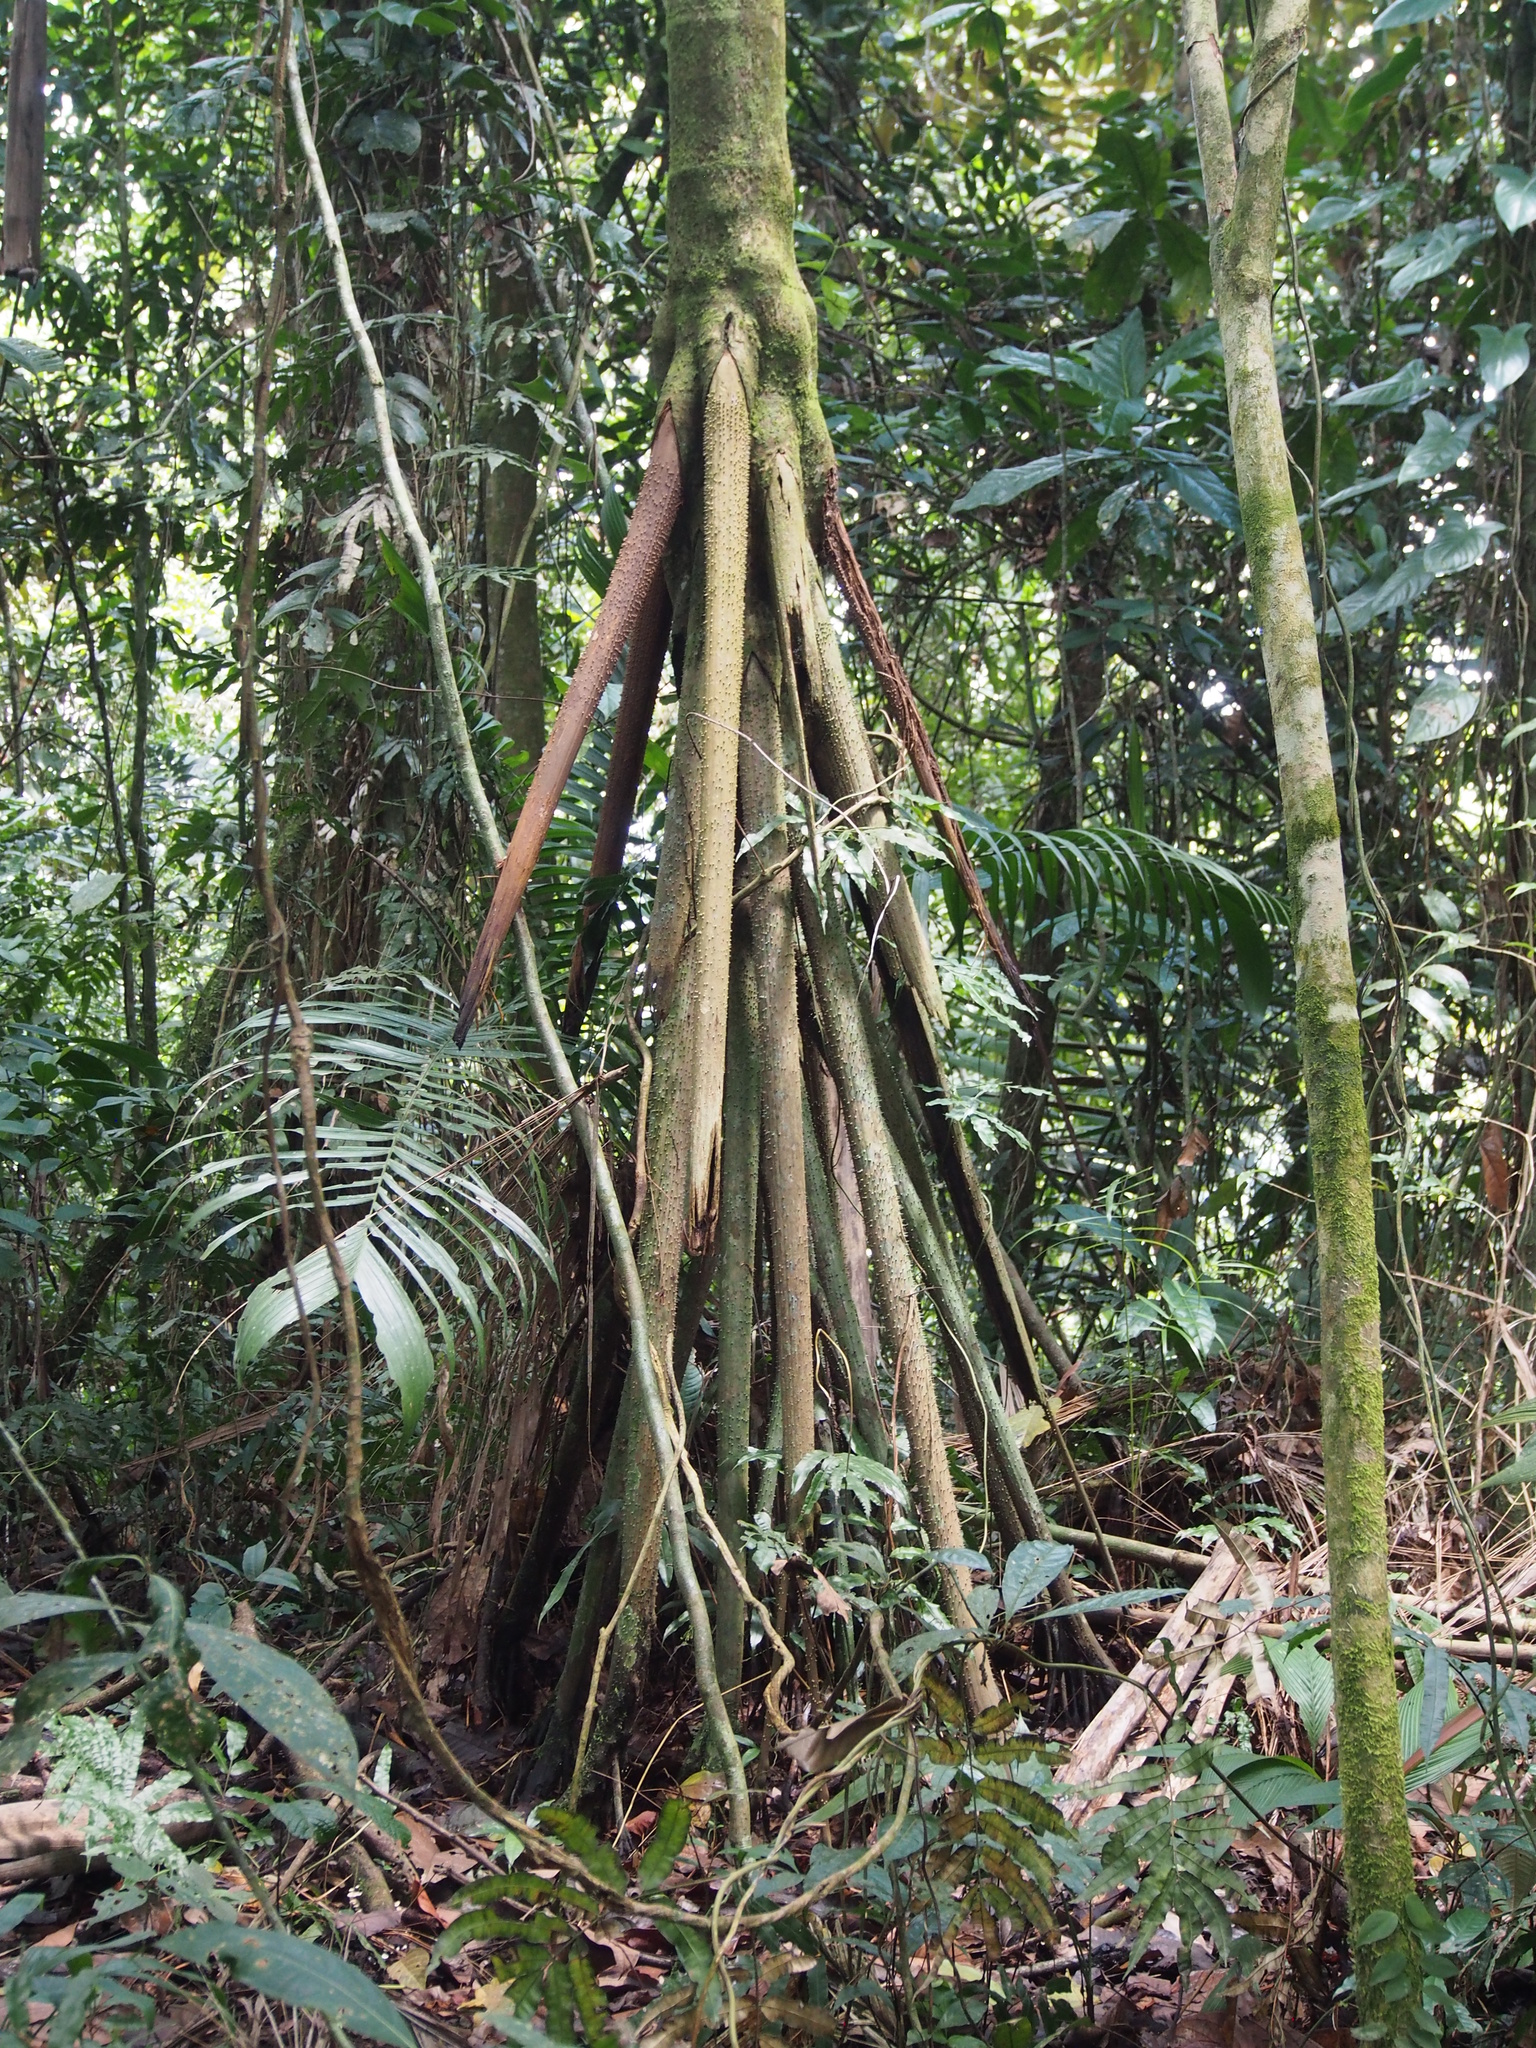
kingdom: Plantae
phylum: Tracheophyta
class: Liliopsida
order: Arecales
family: Arecaceae
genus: Socratea
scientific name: Socratea exorrhiza
